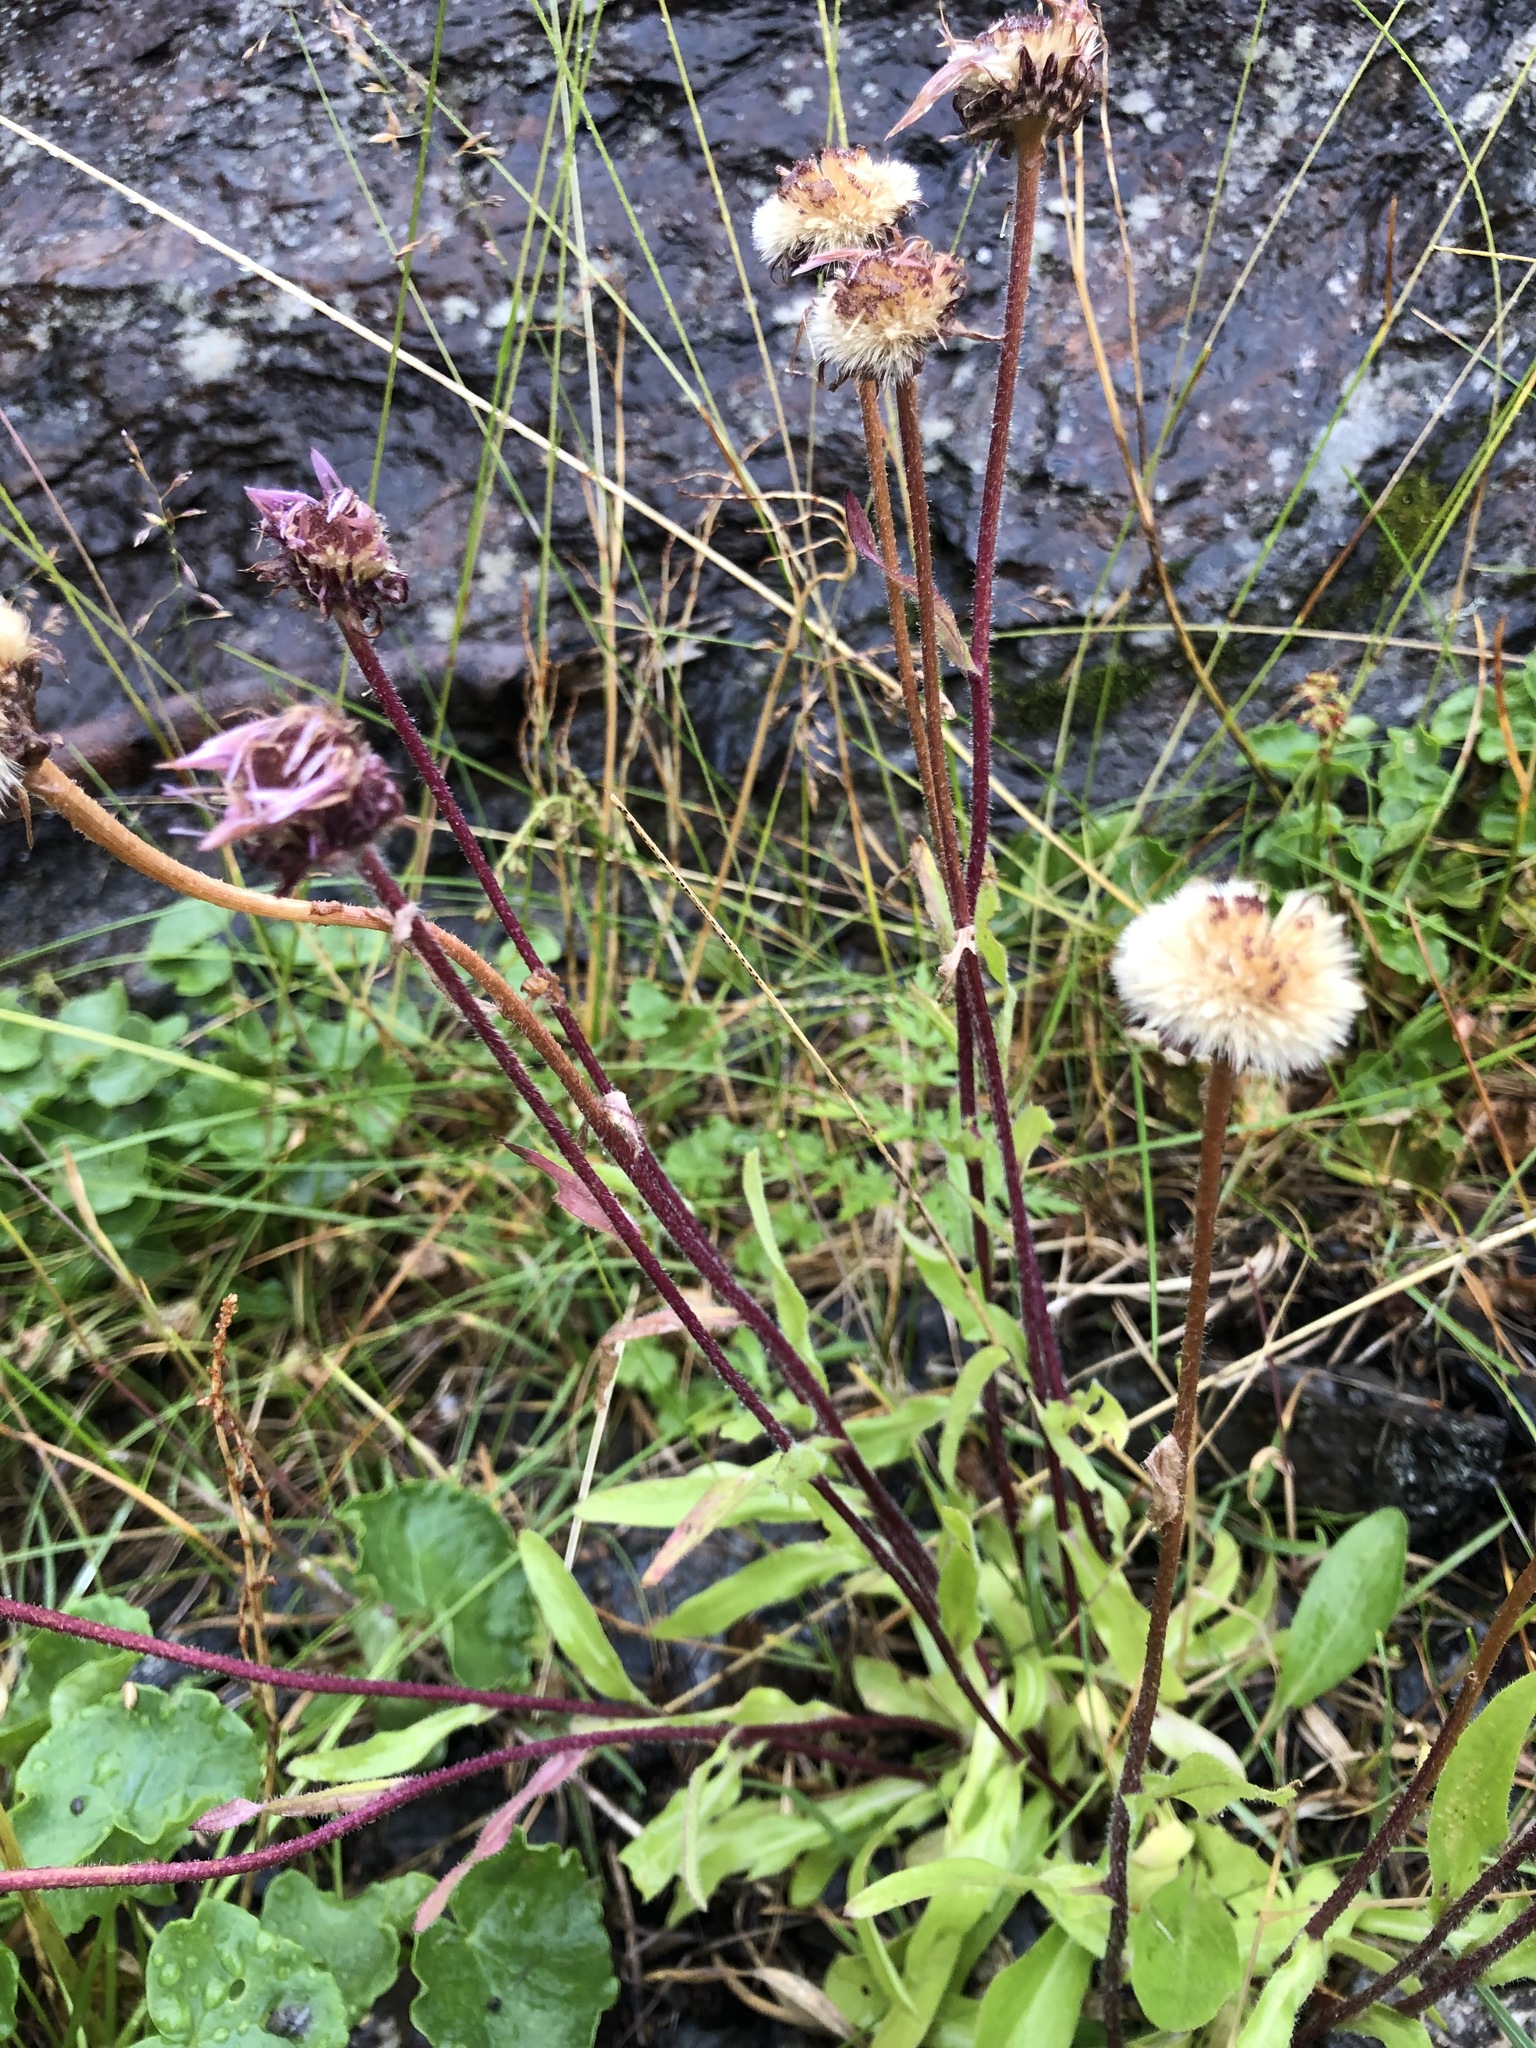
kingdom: Plantae
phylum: Tracheophyta
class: Magnoliopsida
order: Asterales
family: Asteraceae
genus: Erigeron
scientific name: Erigeron eriocephalus
